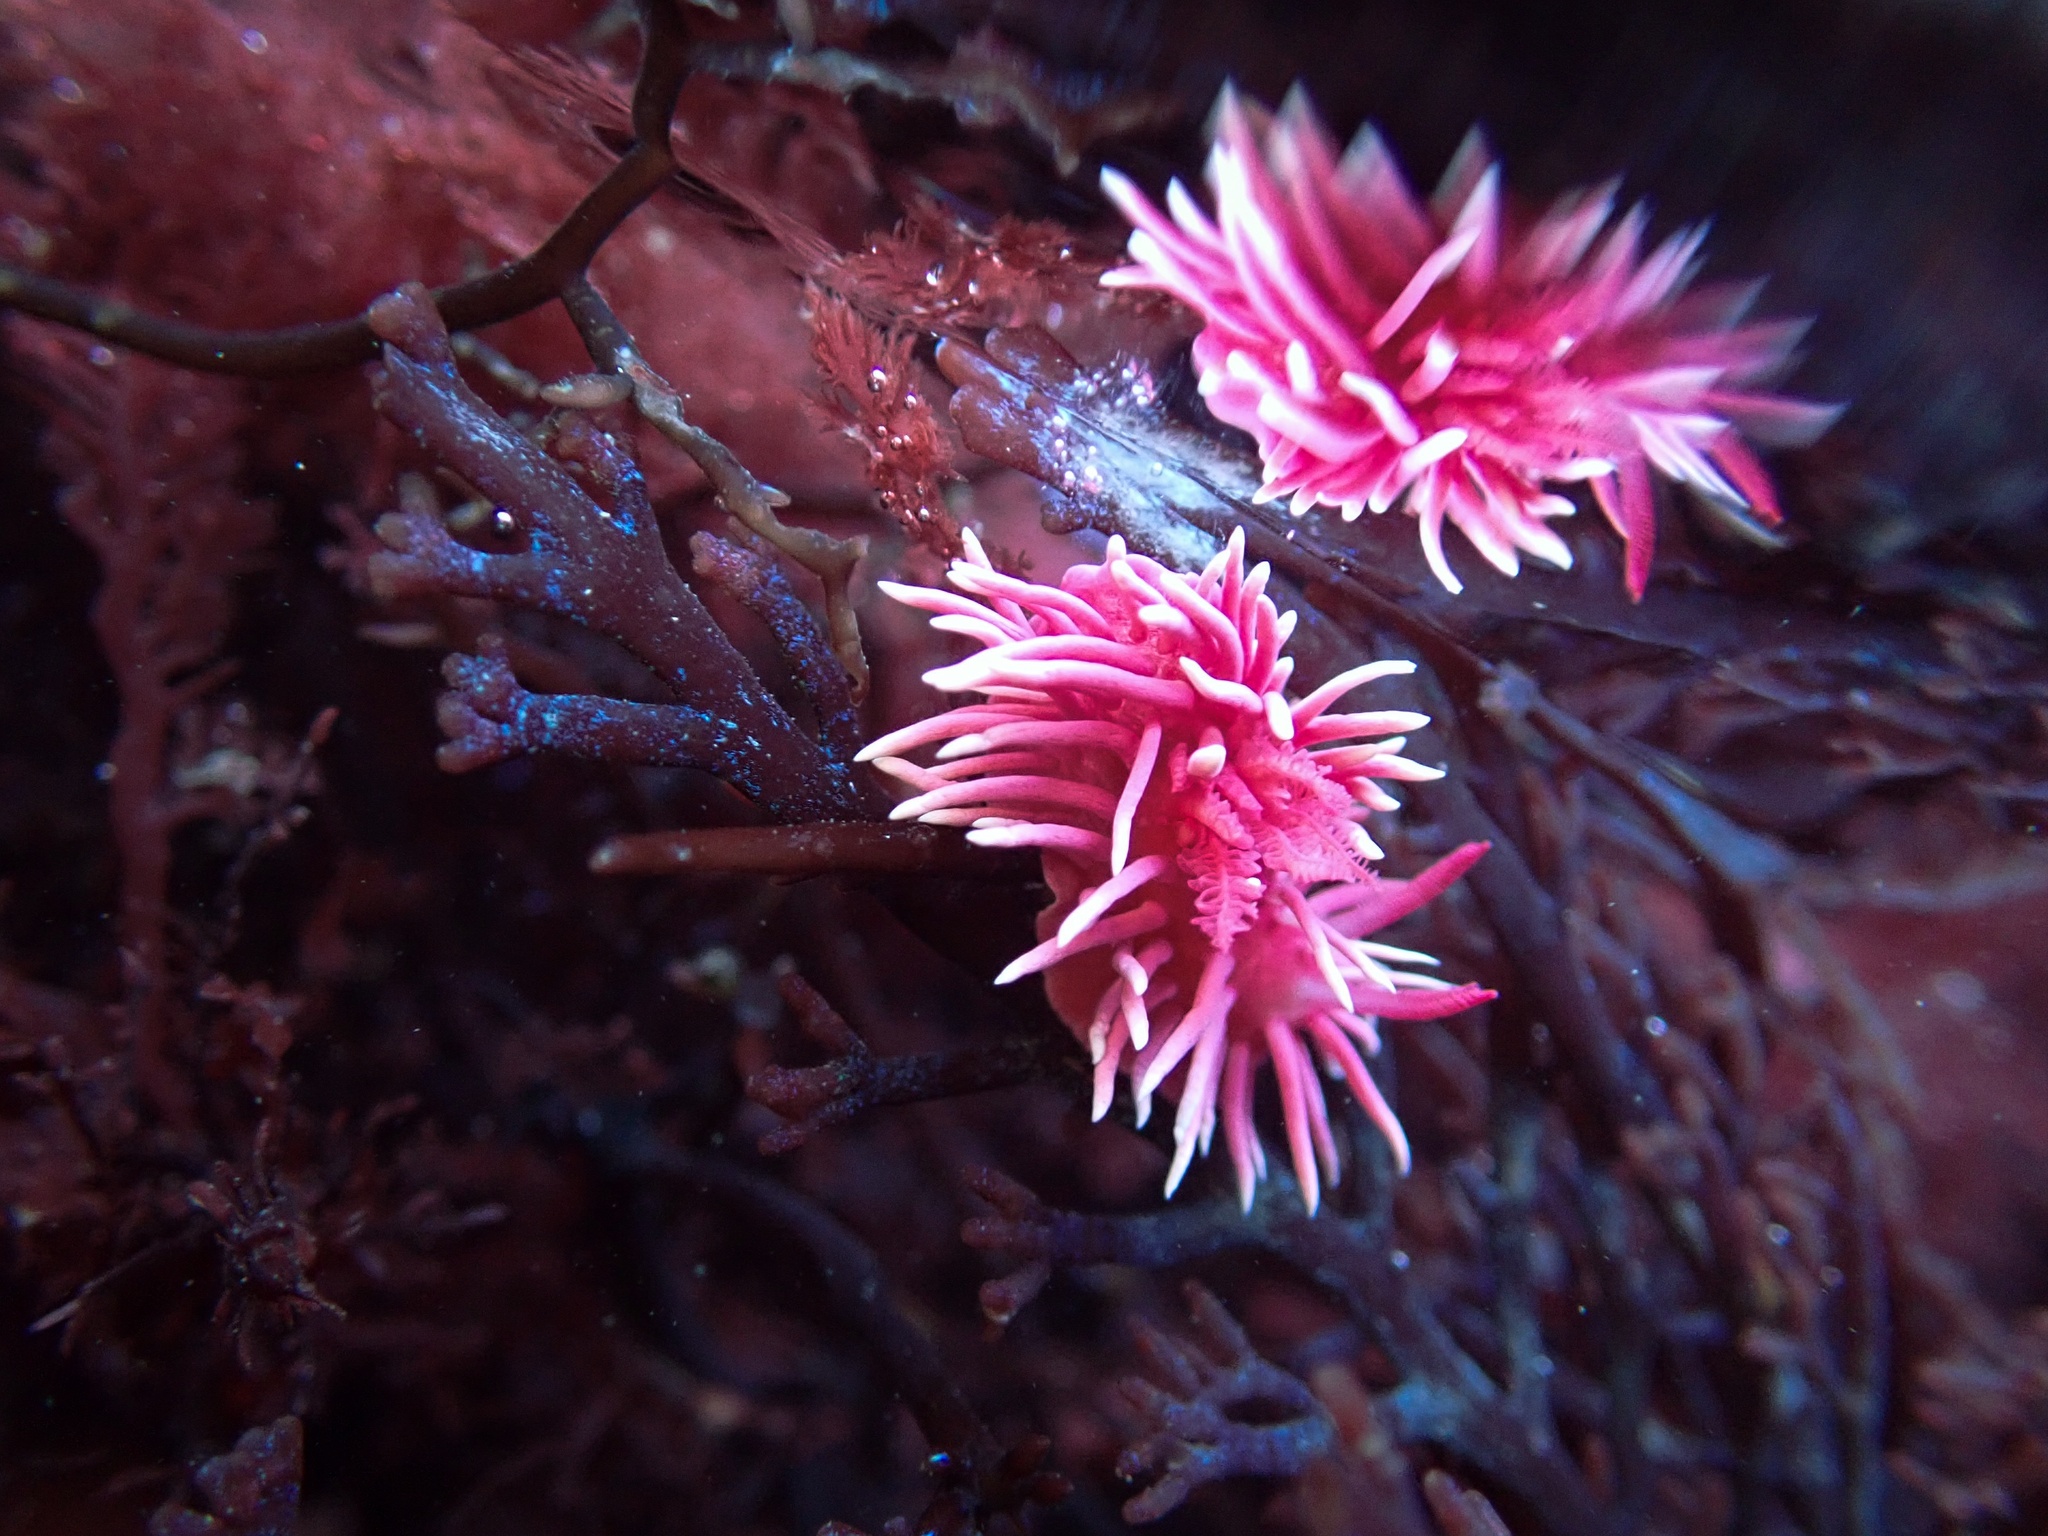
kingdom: Animalia
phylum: Mollusca
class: Gastropoda
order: Nudibranchia
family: Goniodorididae
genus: Okenia
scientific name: Okenia
